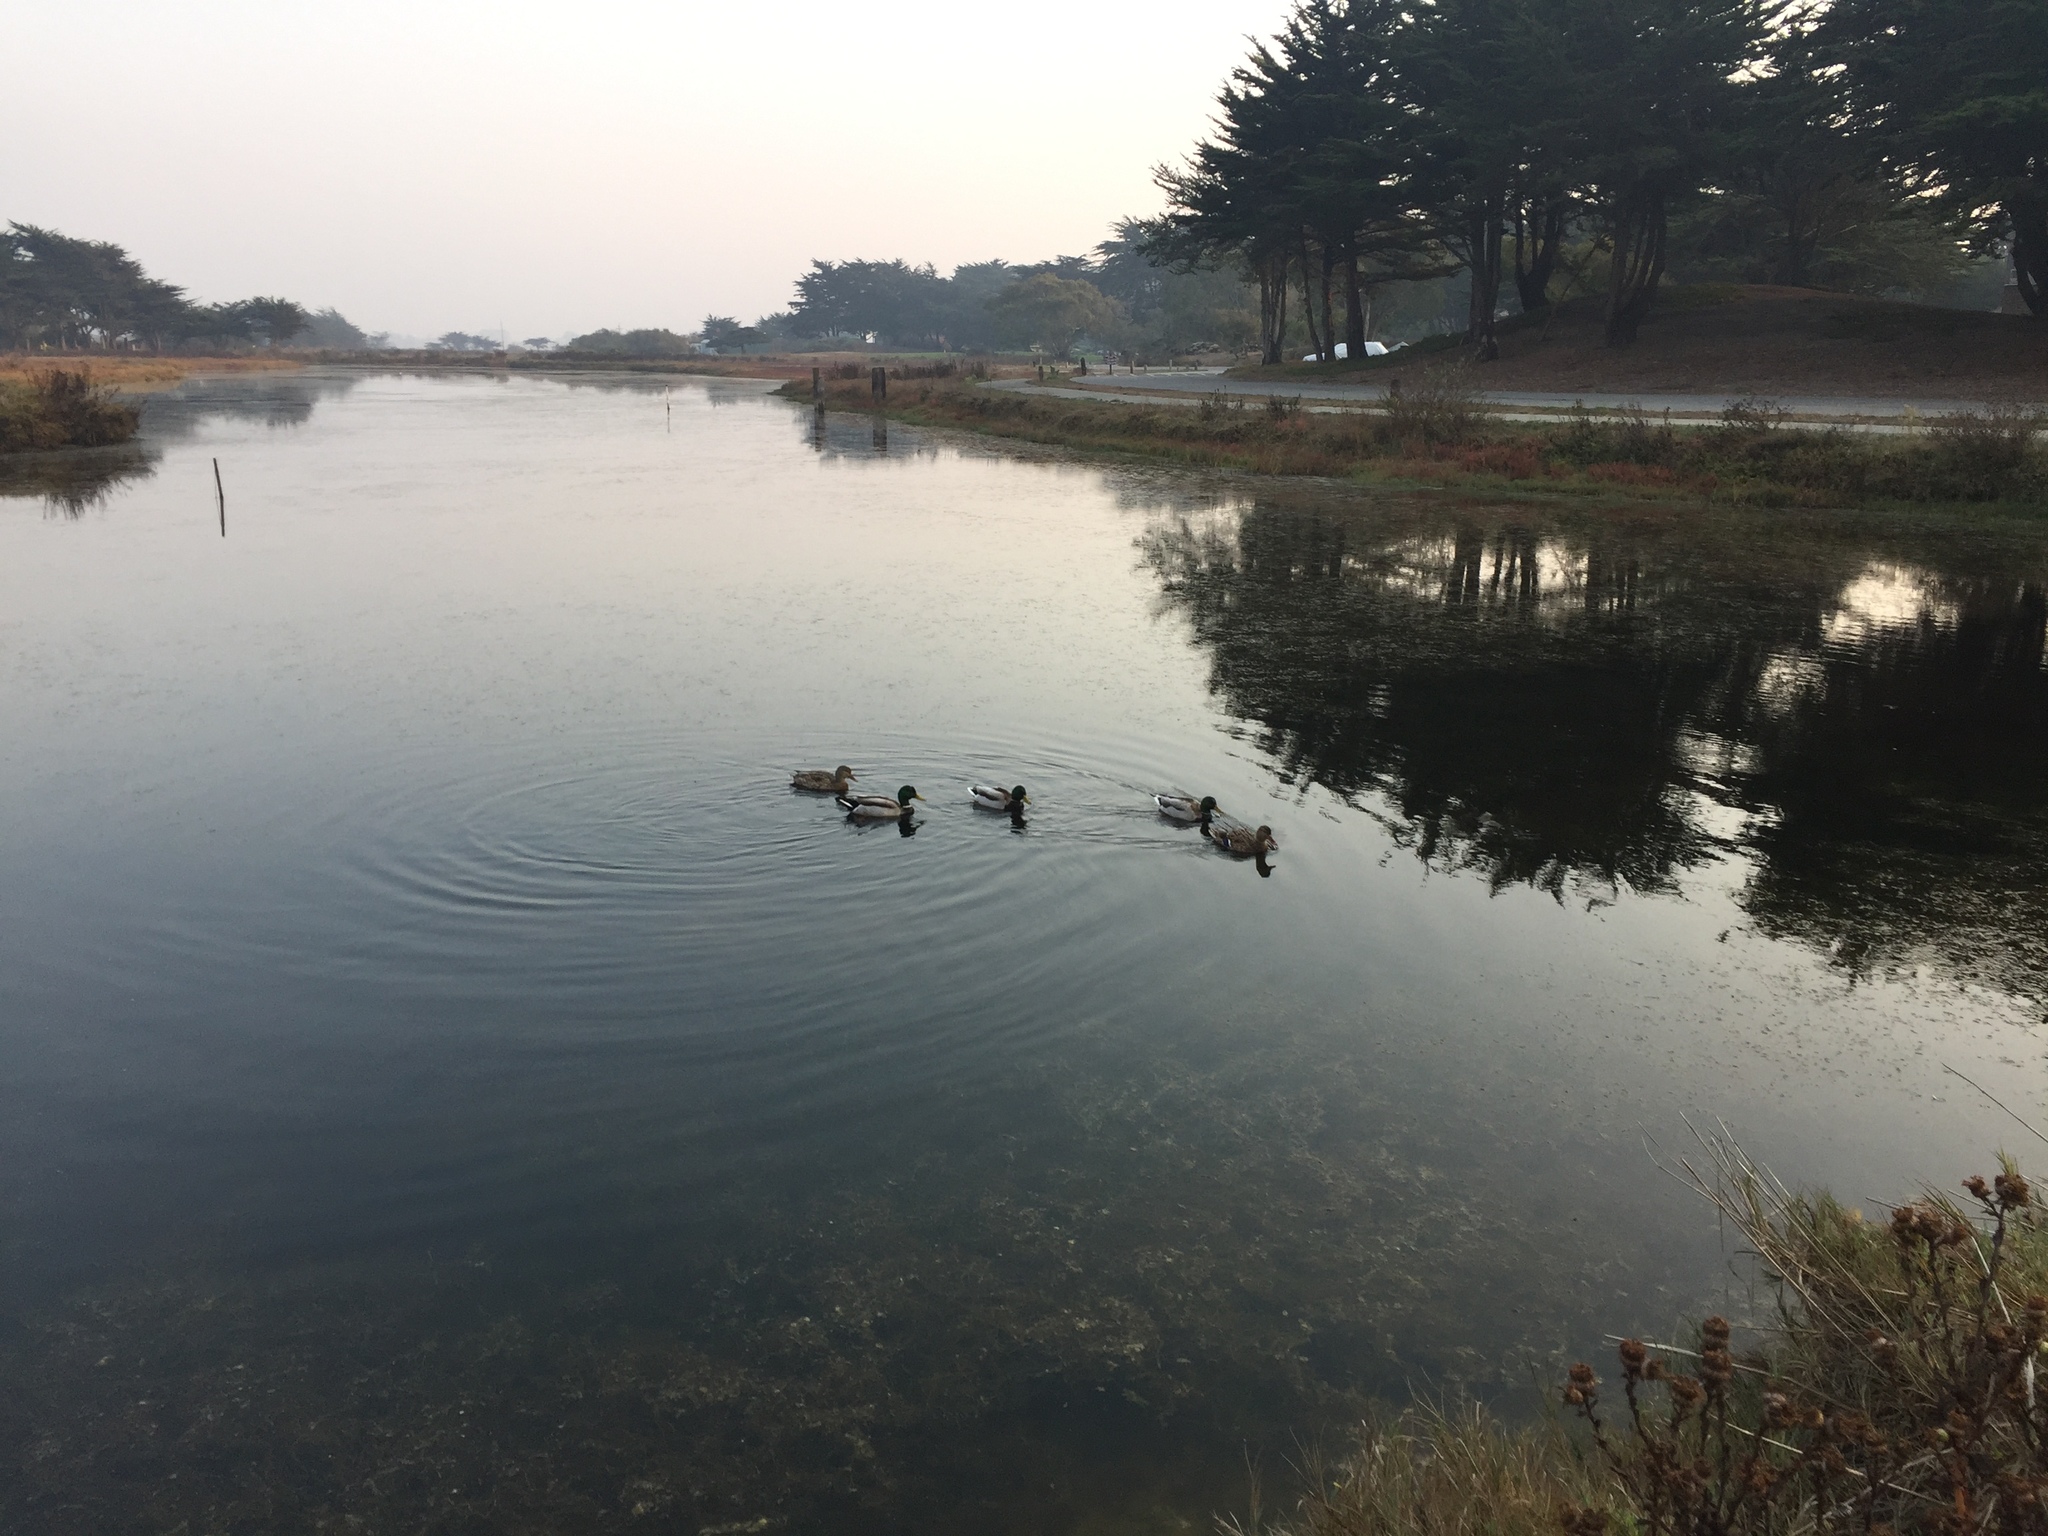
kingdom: Animalia
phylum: Chordata
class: Aves
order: Anseriformes
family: Anatidae
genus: Anas
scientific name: Anas platyrhynchos
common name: Mallard
